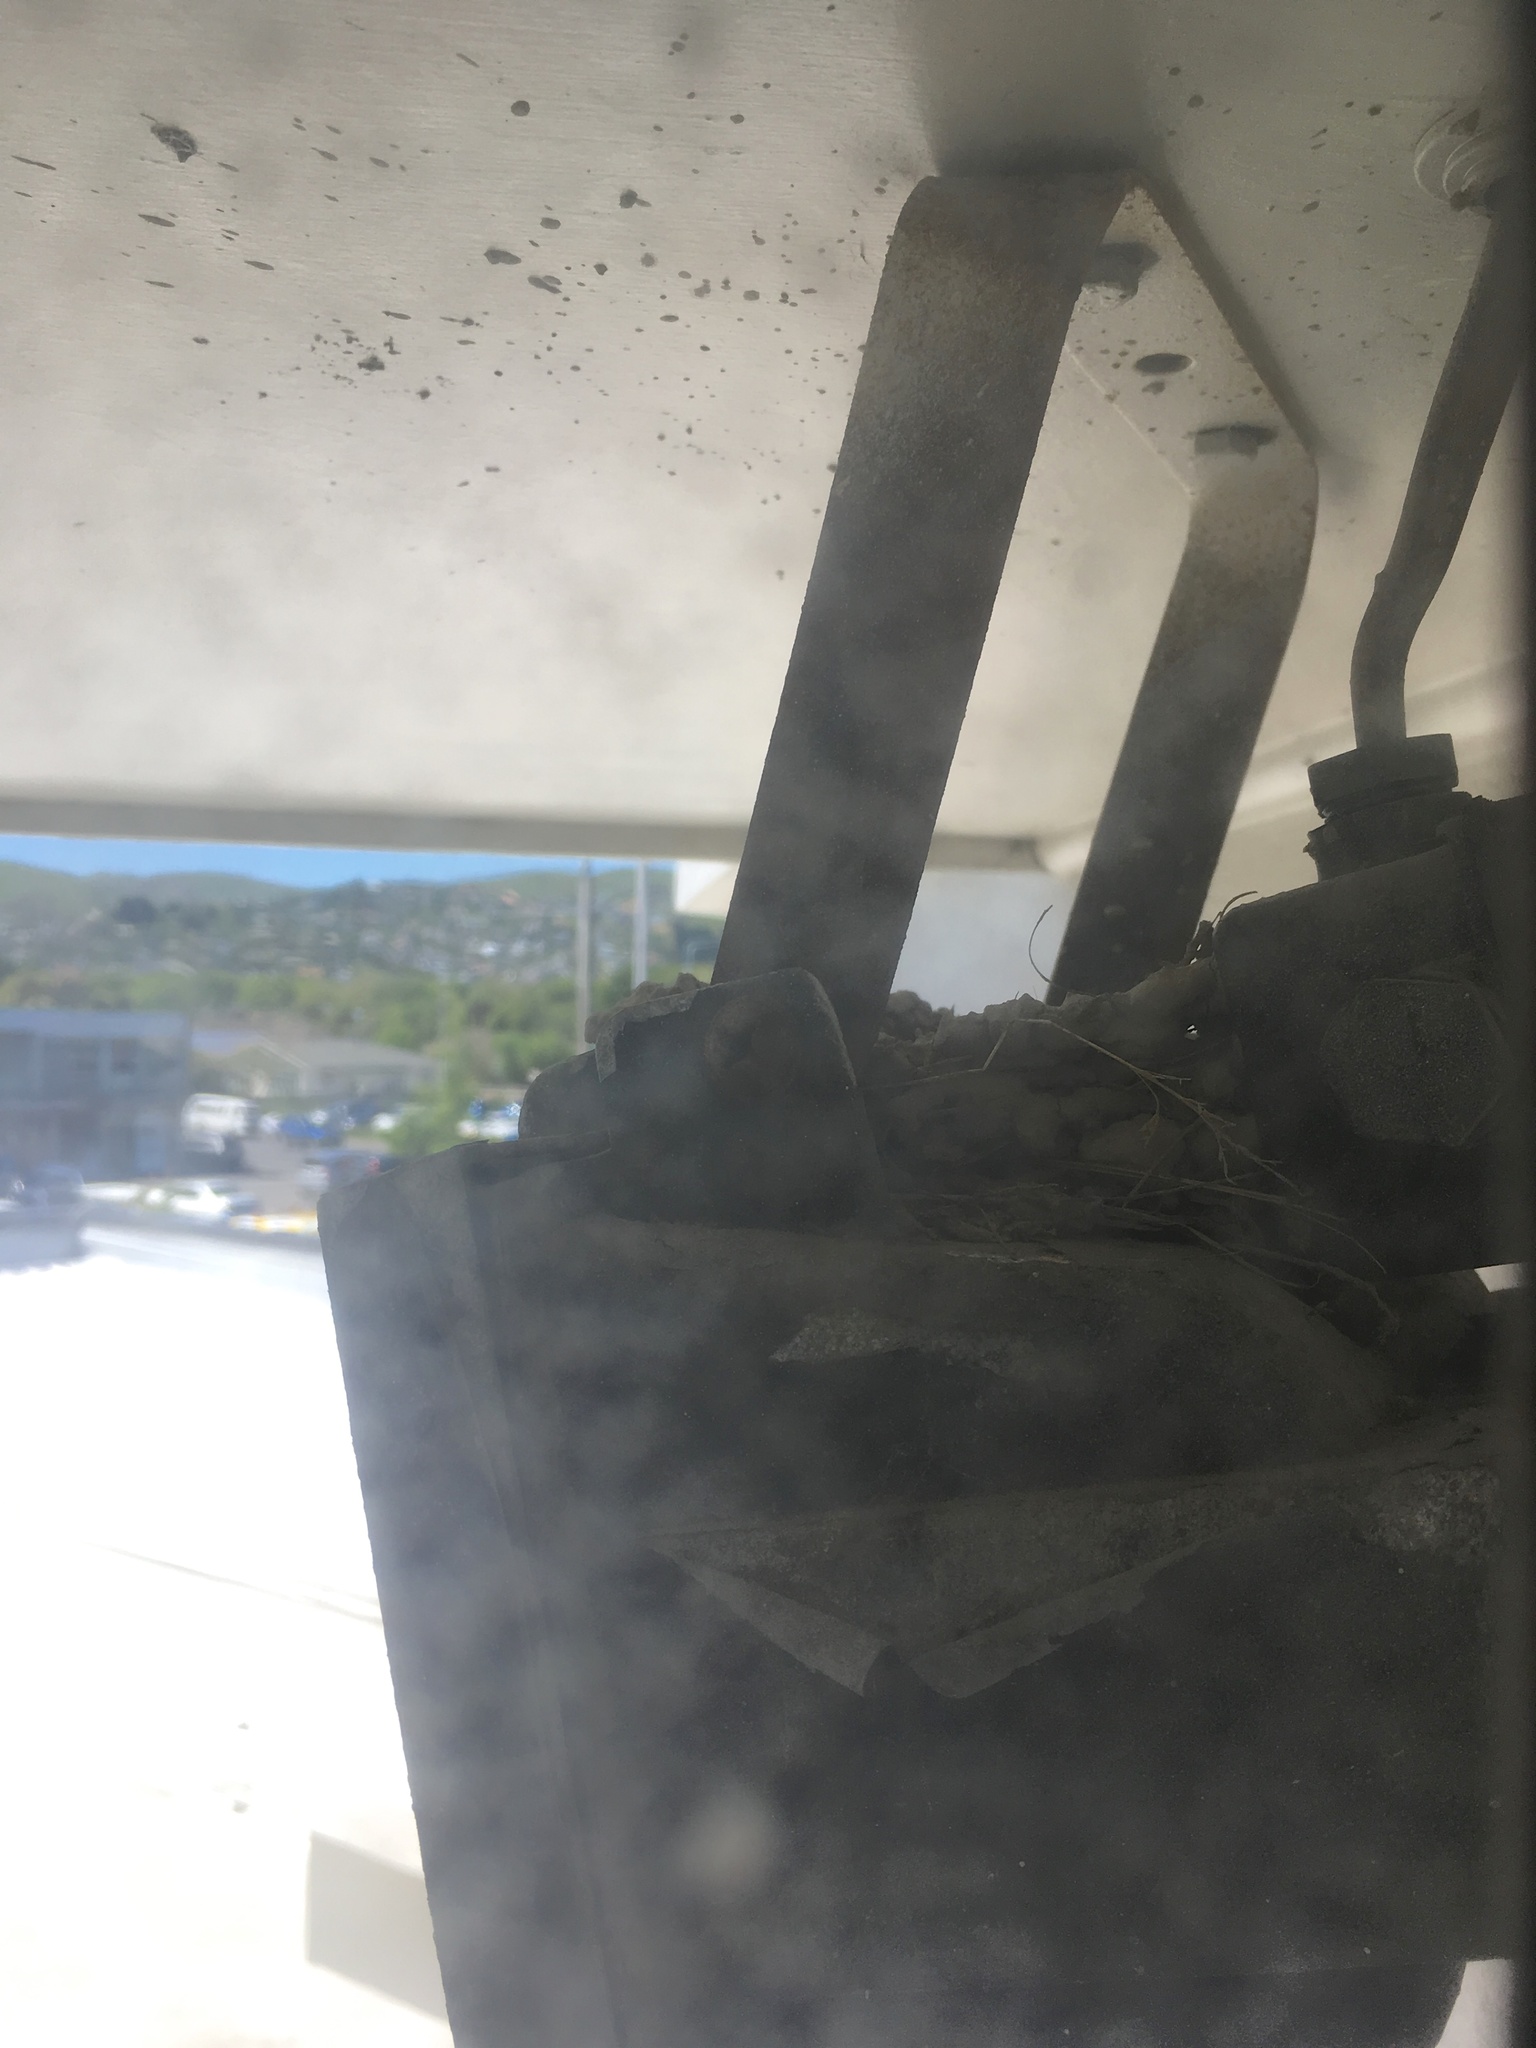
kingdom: Animalia
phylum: Chordata
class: Aves
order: Passeriformes
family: Hirundinidae
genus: Hirundo
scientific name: Hirundo neoxena
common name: Welcome swallow
